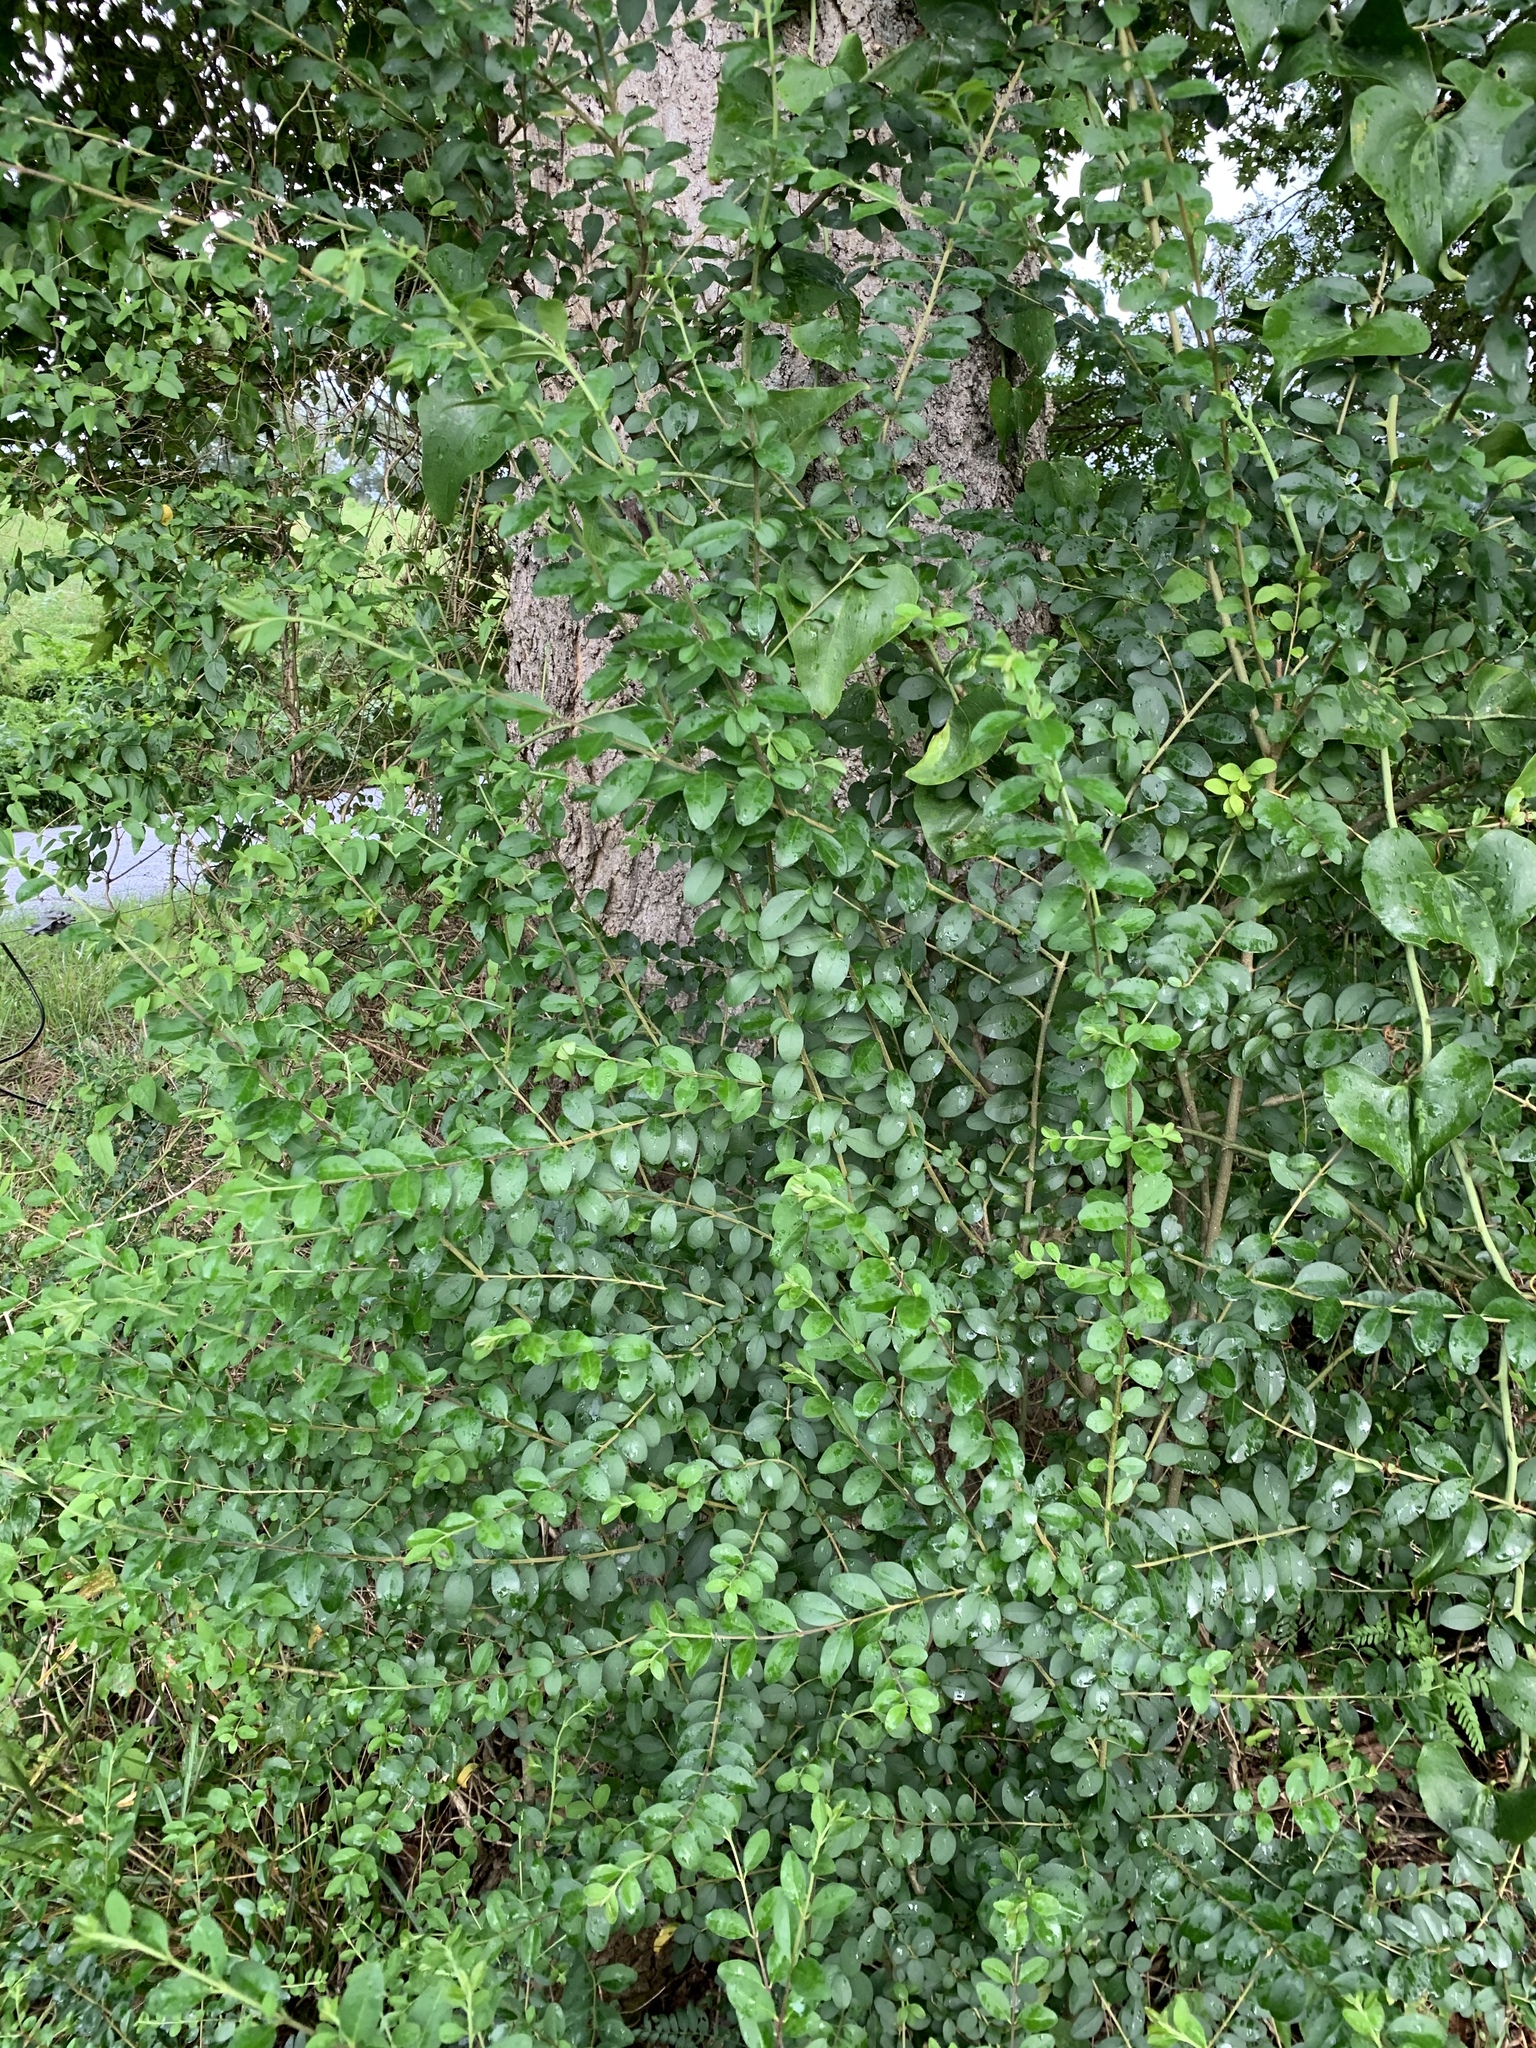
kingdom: Plantae
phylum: Tracheophyta
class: Magnoliopsida
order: Lamiales
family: Oleaceae
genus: Ligustrum
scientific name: Ligustrum sinense
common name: Chinese privet
